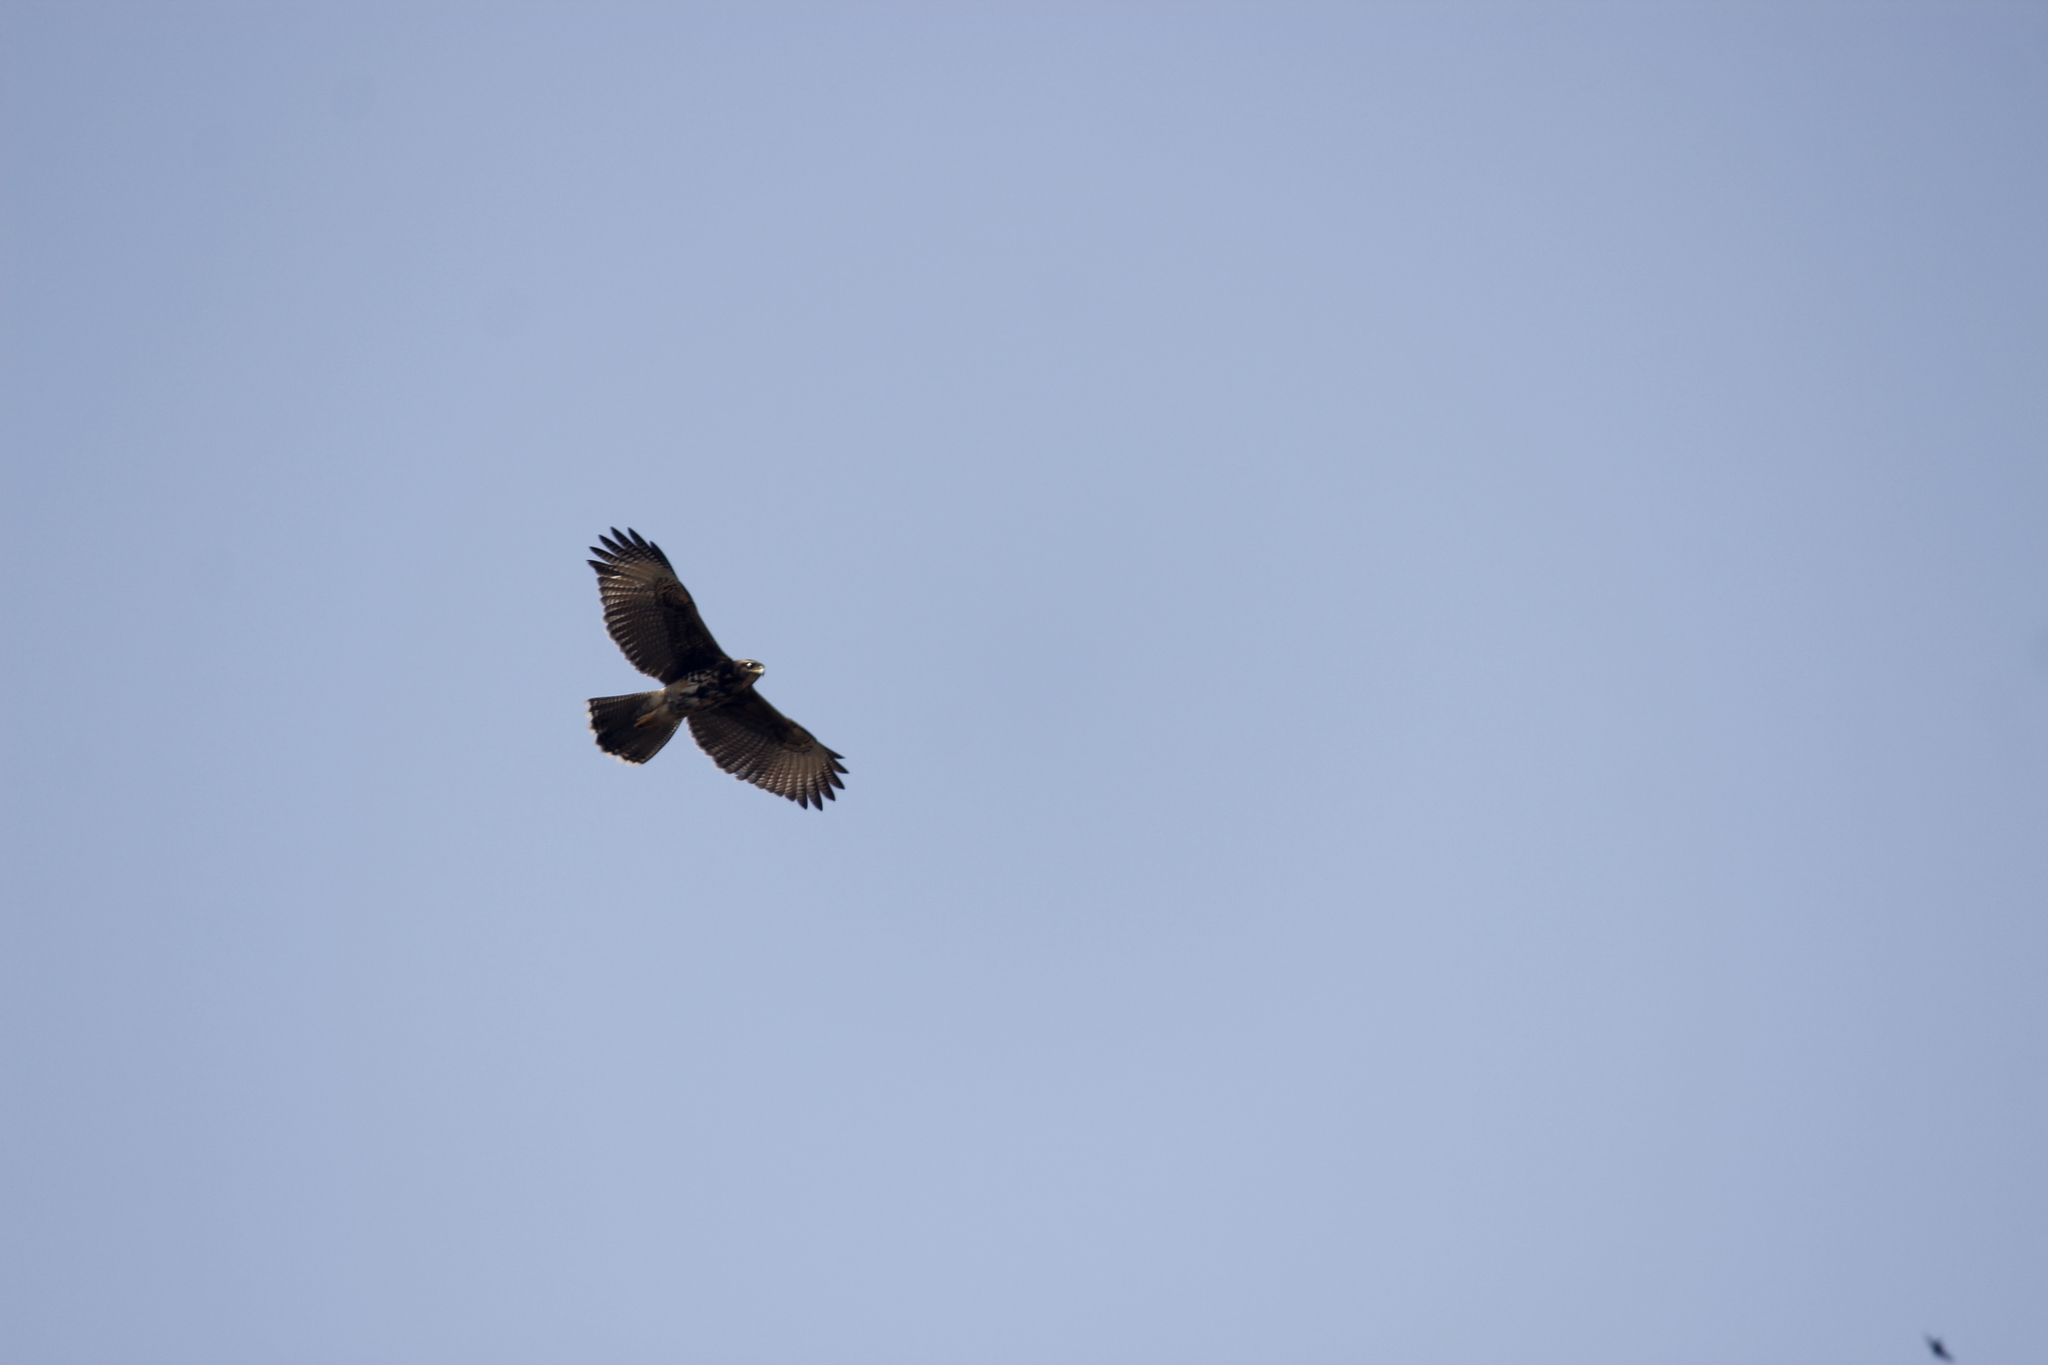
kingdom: Animalia
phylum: Chordata
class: Aves
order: Accipitriformes
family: Accipitridae
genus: Parabuteo
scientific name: Parabuteo unicinctus
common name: Harris's hawk
